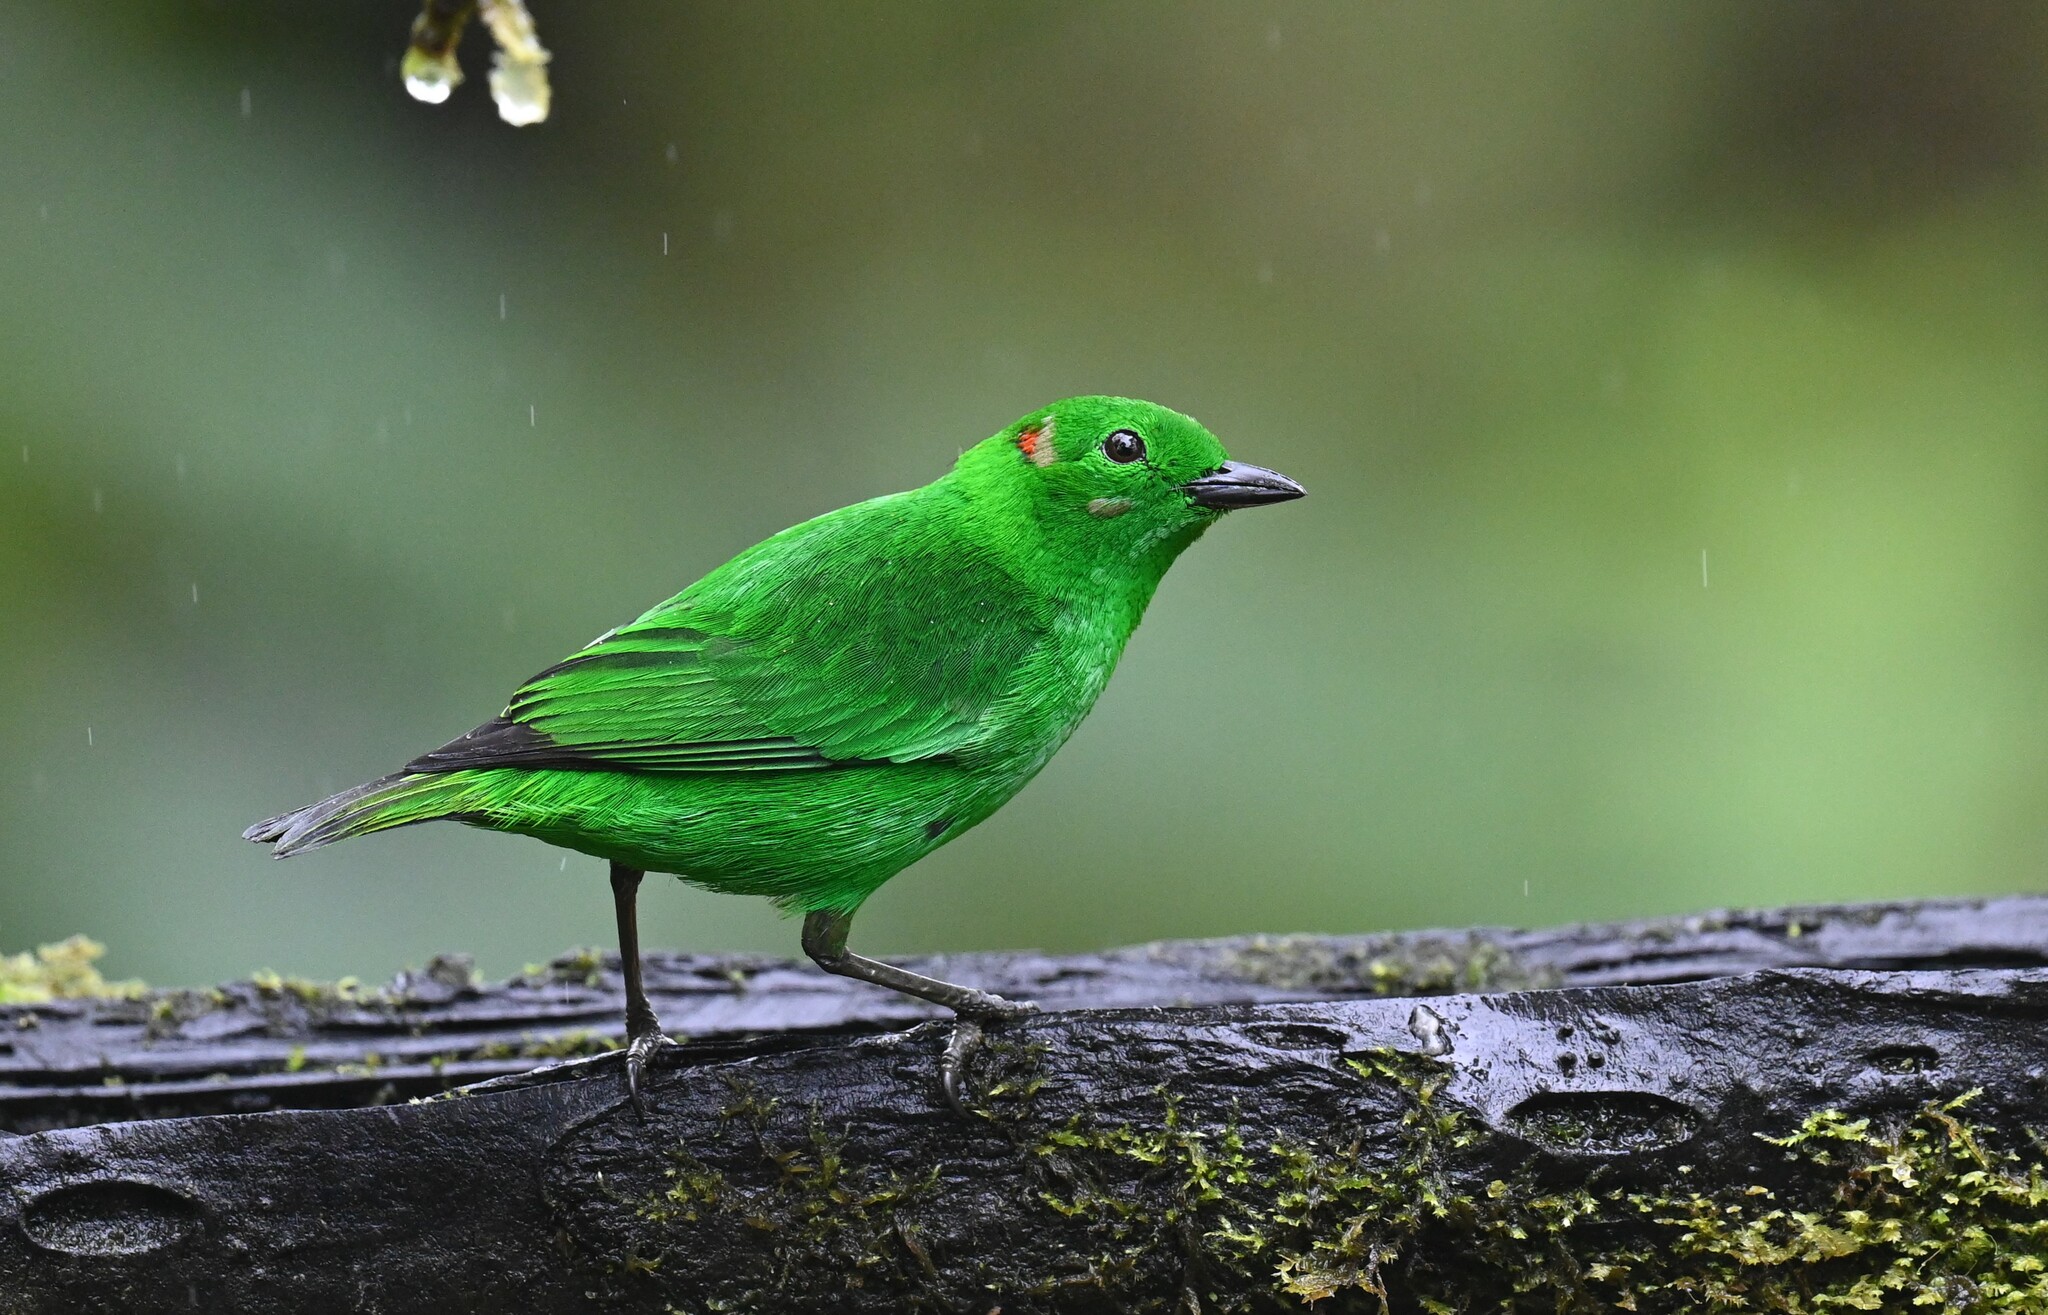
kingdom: Animalia
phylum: Chordata
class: Aves
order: Passeriformes
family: Thraupidae
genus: Chlorochrysa
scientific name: Chlorochrysa phoenicotis
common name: Glistening-green tanager
